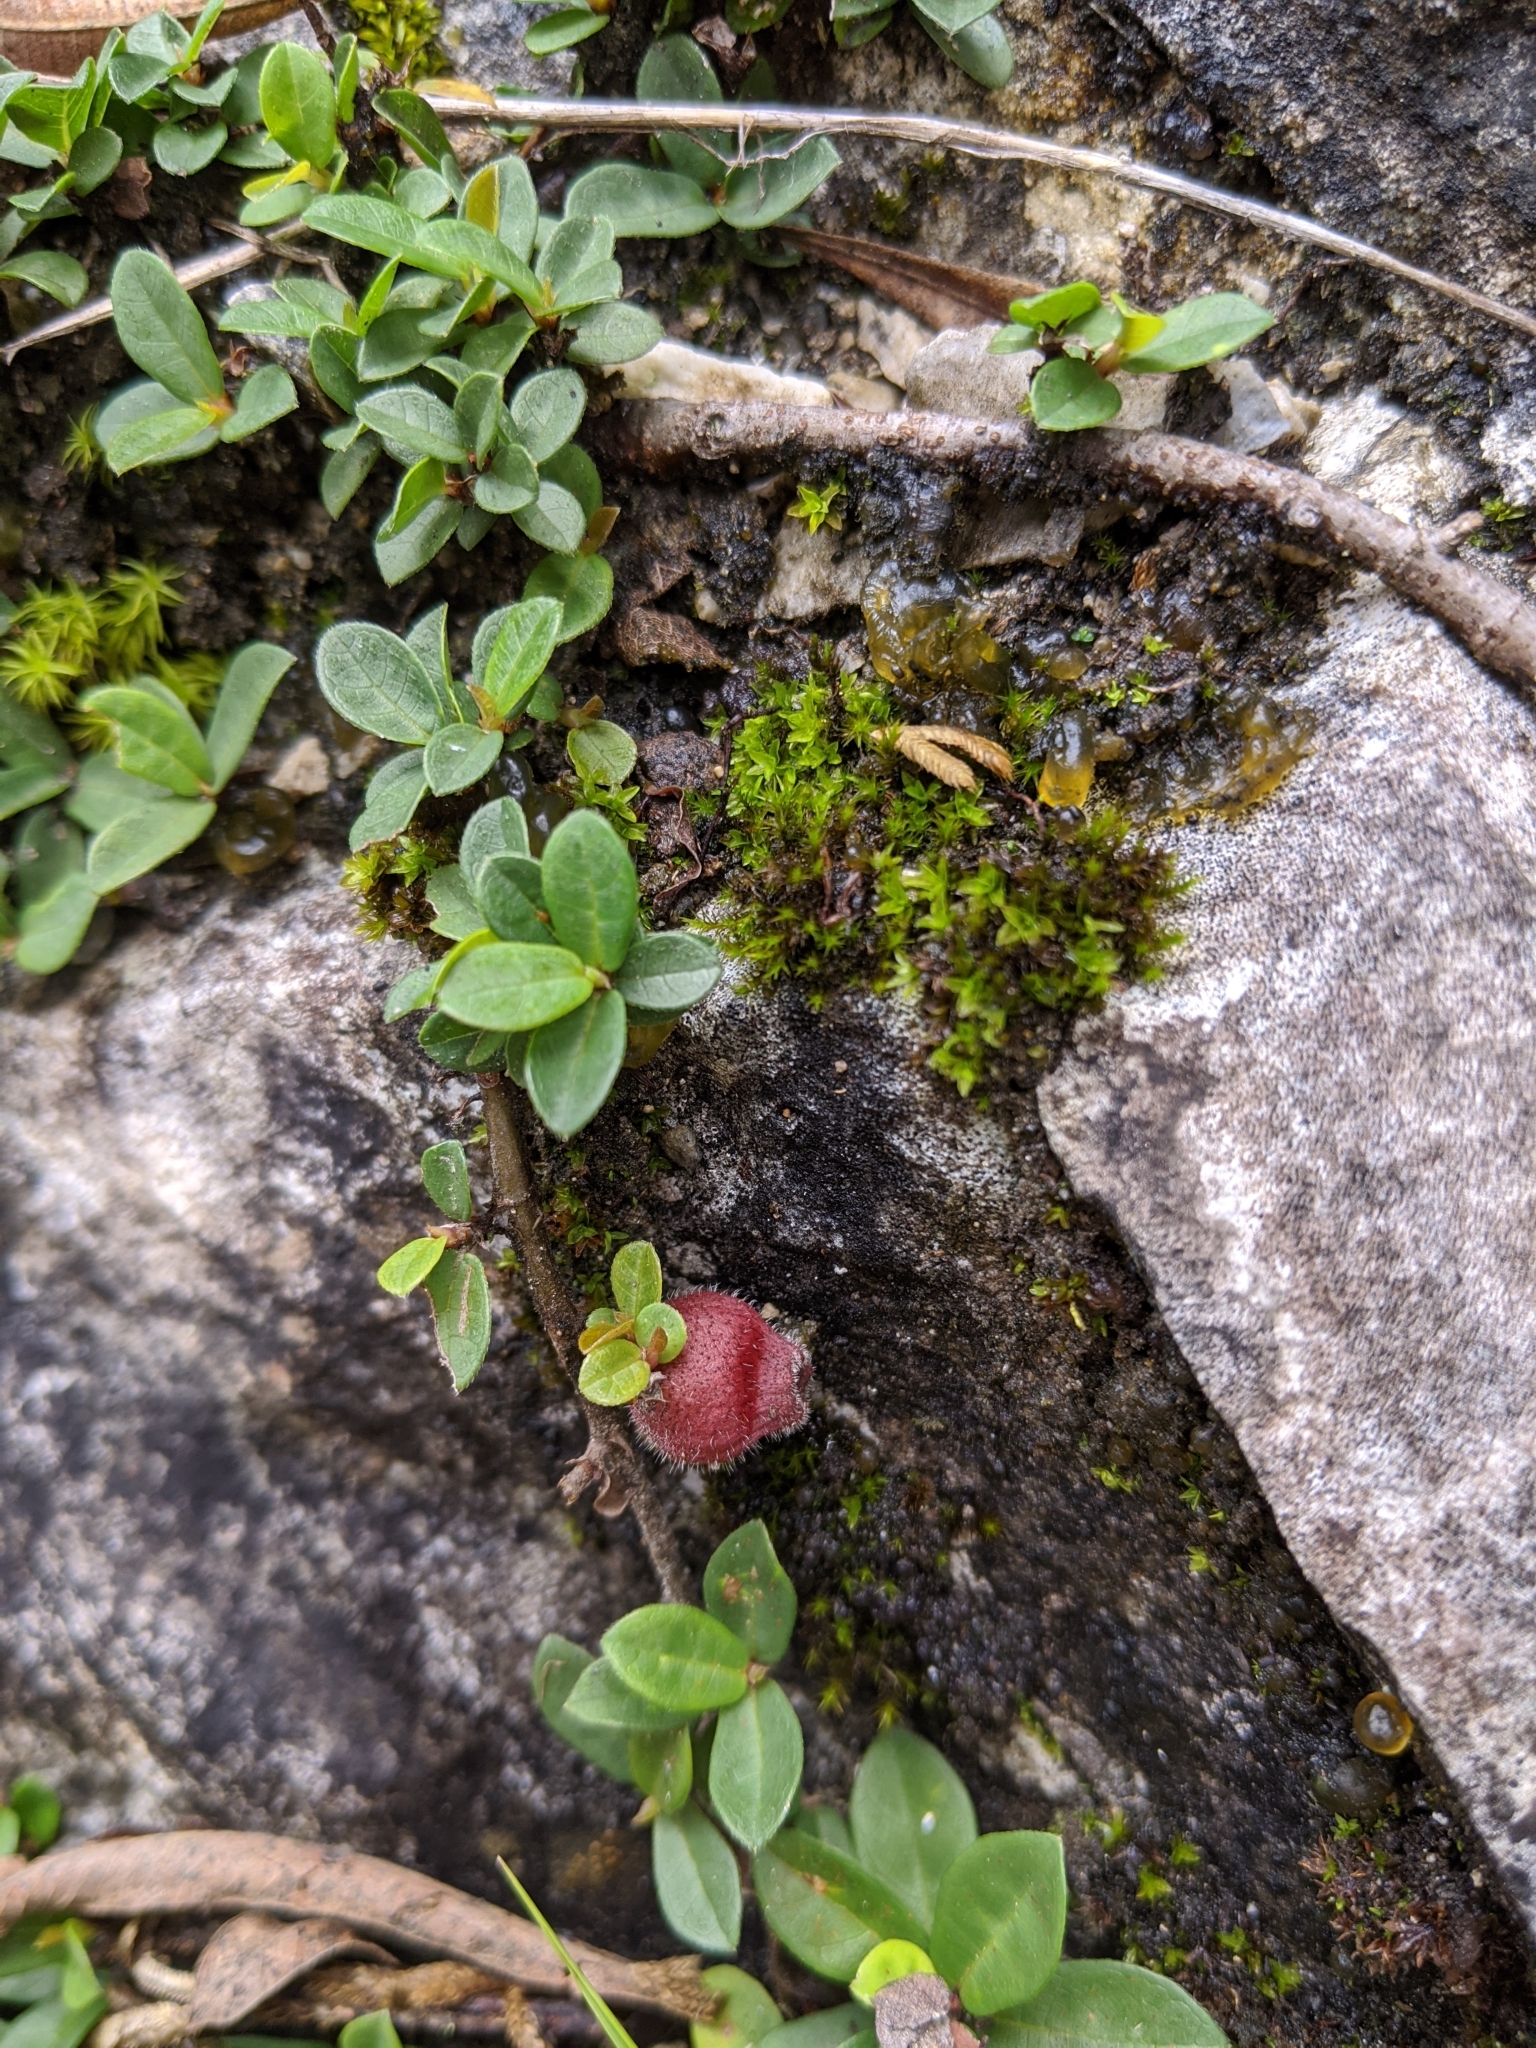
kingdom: Plantae
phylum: Tracheophyta
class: Magnoliopsida
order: Rosales
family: Moraceae
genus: Ficus
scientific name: Ficus vaccinioides
